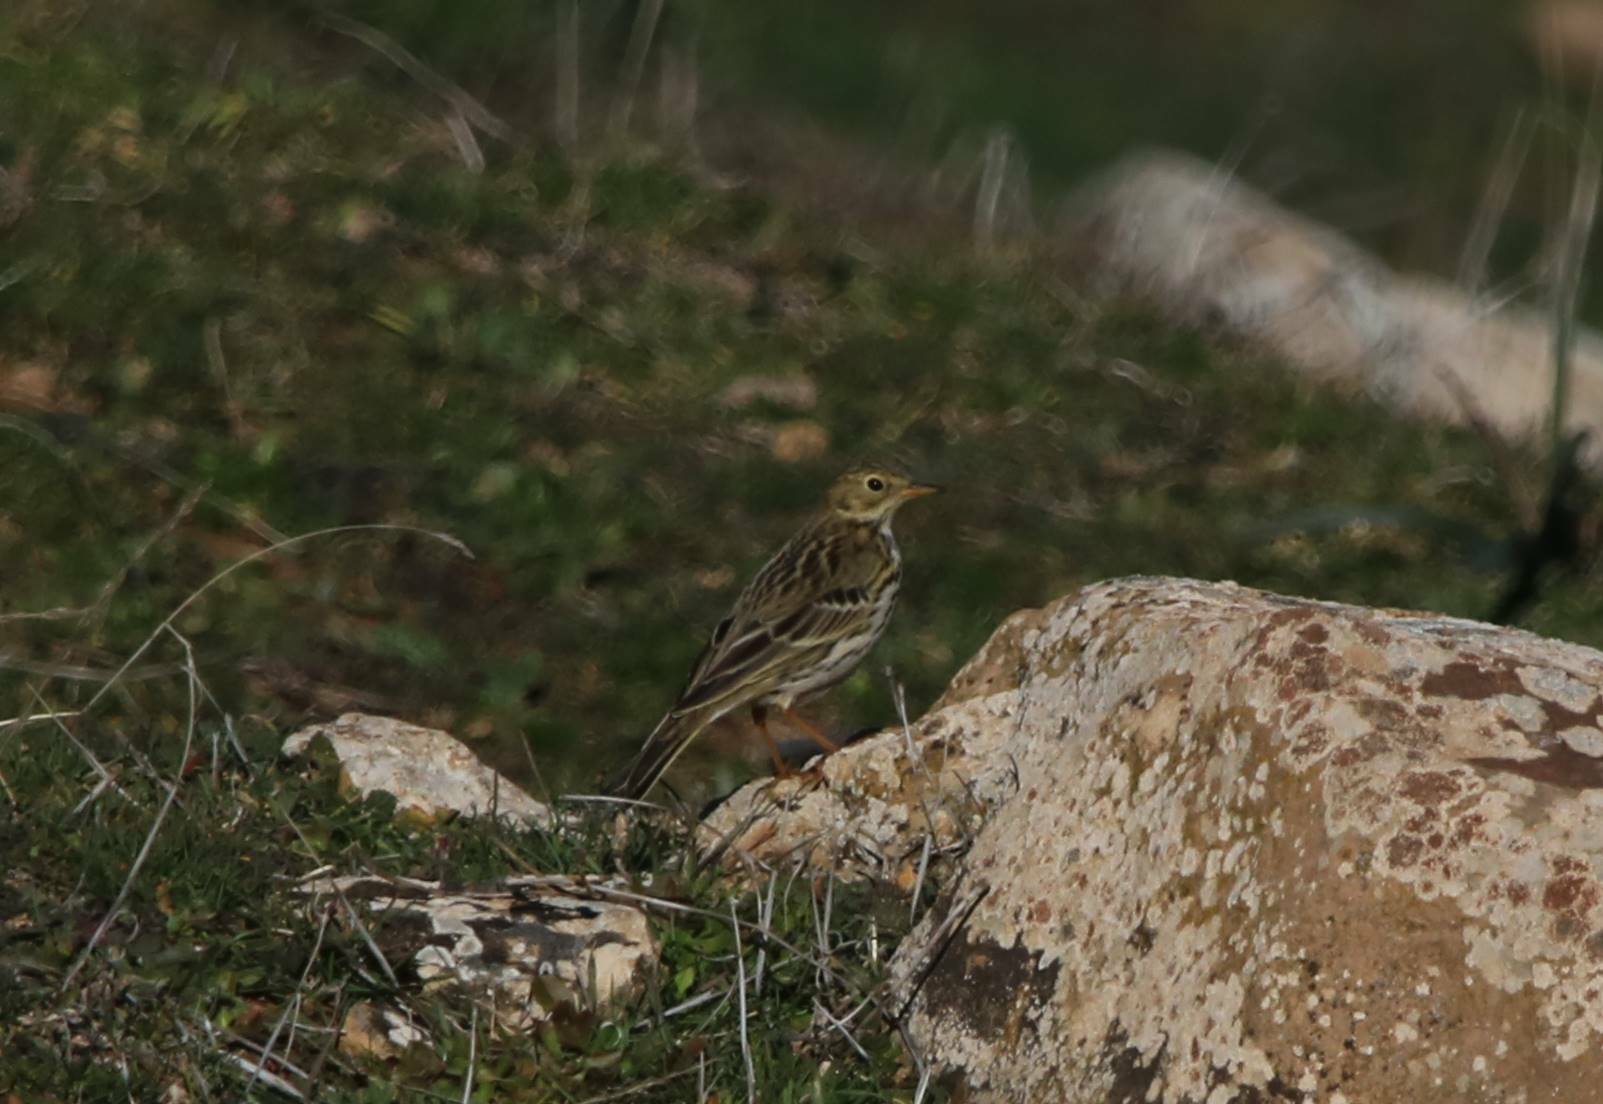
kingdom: Animalia
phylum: Chordata
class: Aves
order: Passeriformes
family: Motacillidae
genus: Anthus
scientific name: Anthus pratensis
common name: Meadow pipit
